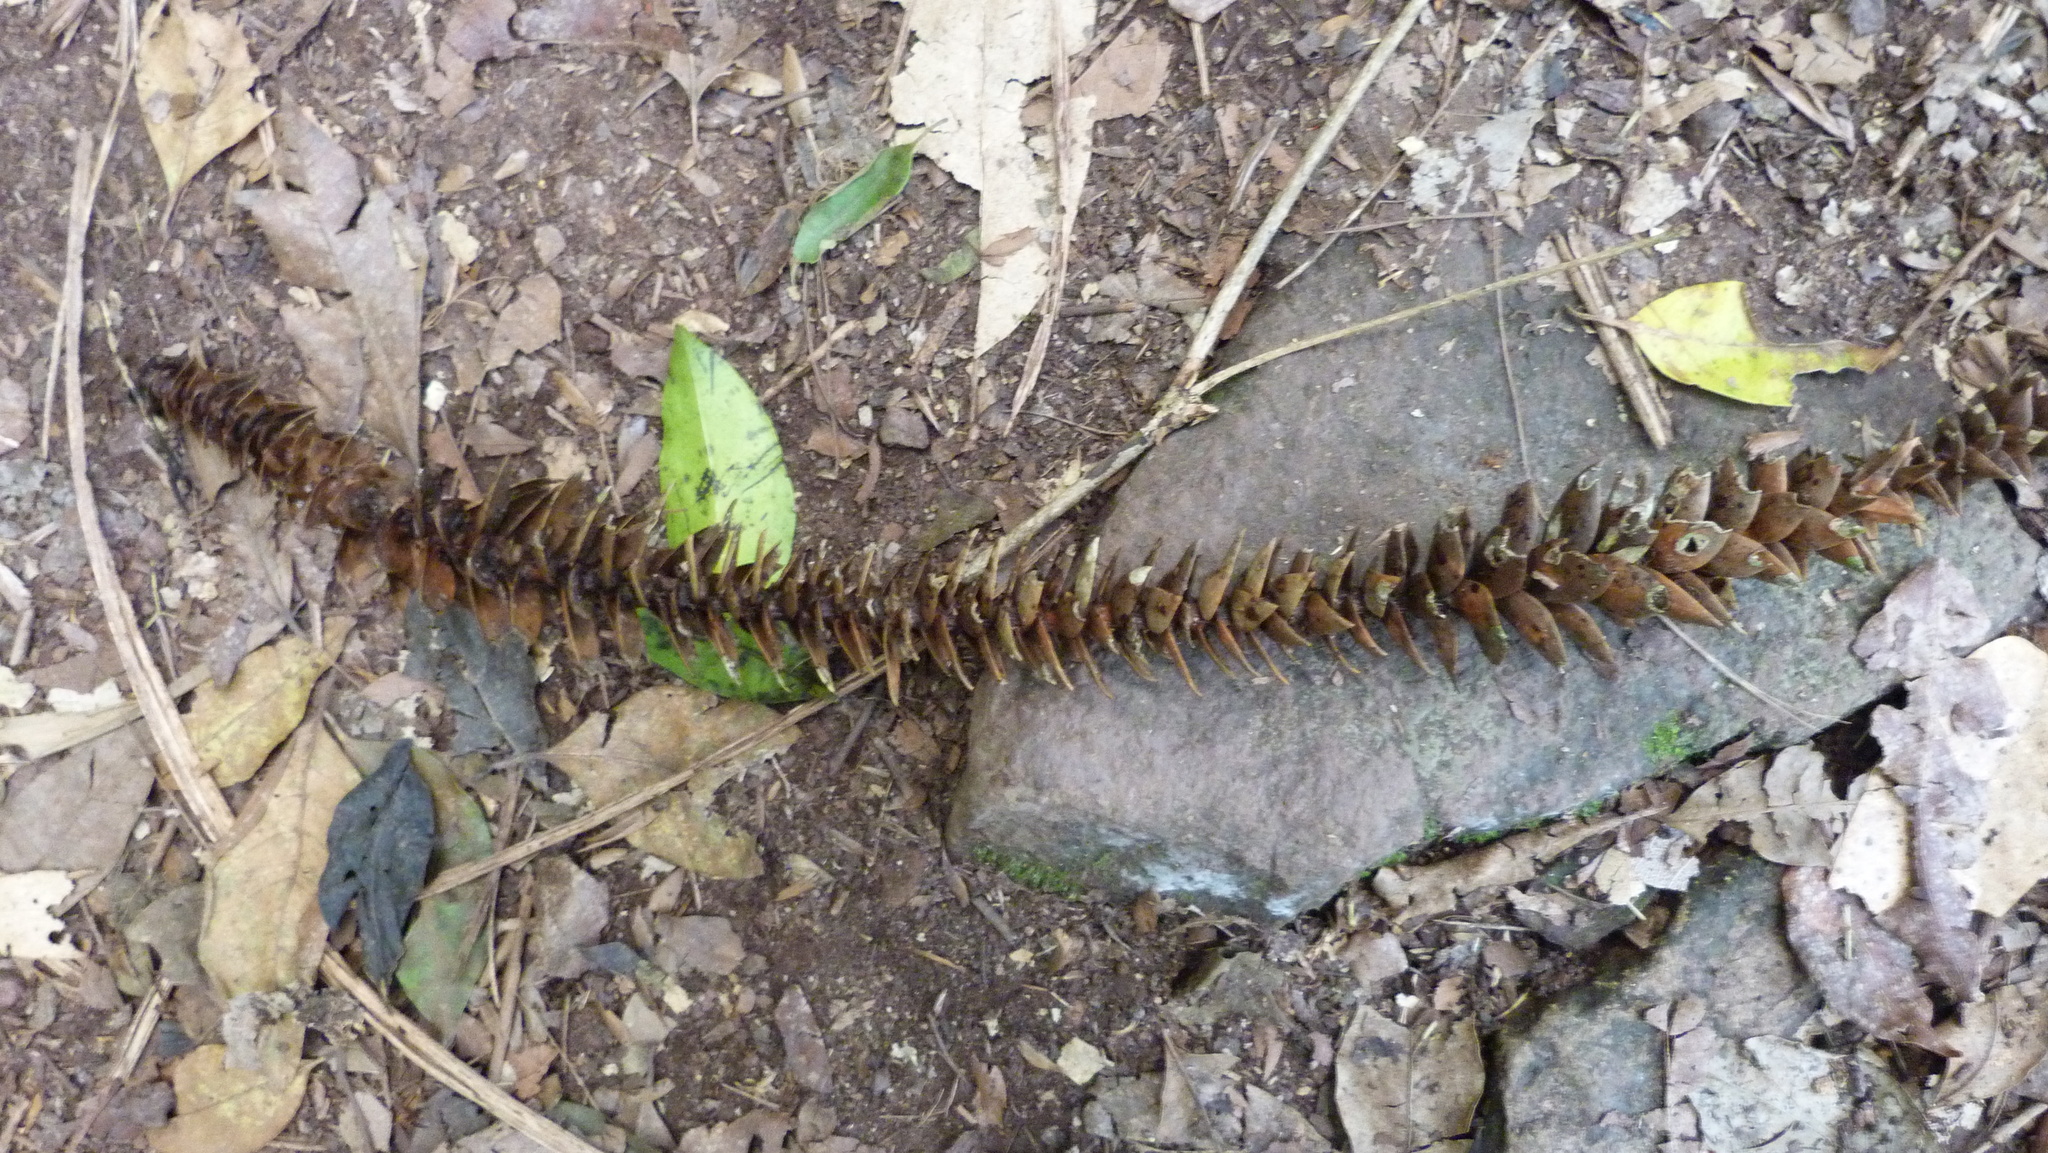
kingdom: Plantae
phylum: Tracheophyta
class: Pinopsida
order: Pinales
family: Araucariaceae
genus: Araucaria
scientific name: Araucaria bidwillii
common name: Moreton-bay-pine
